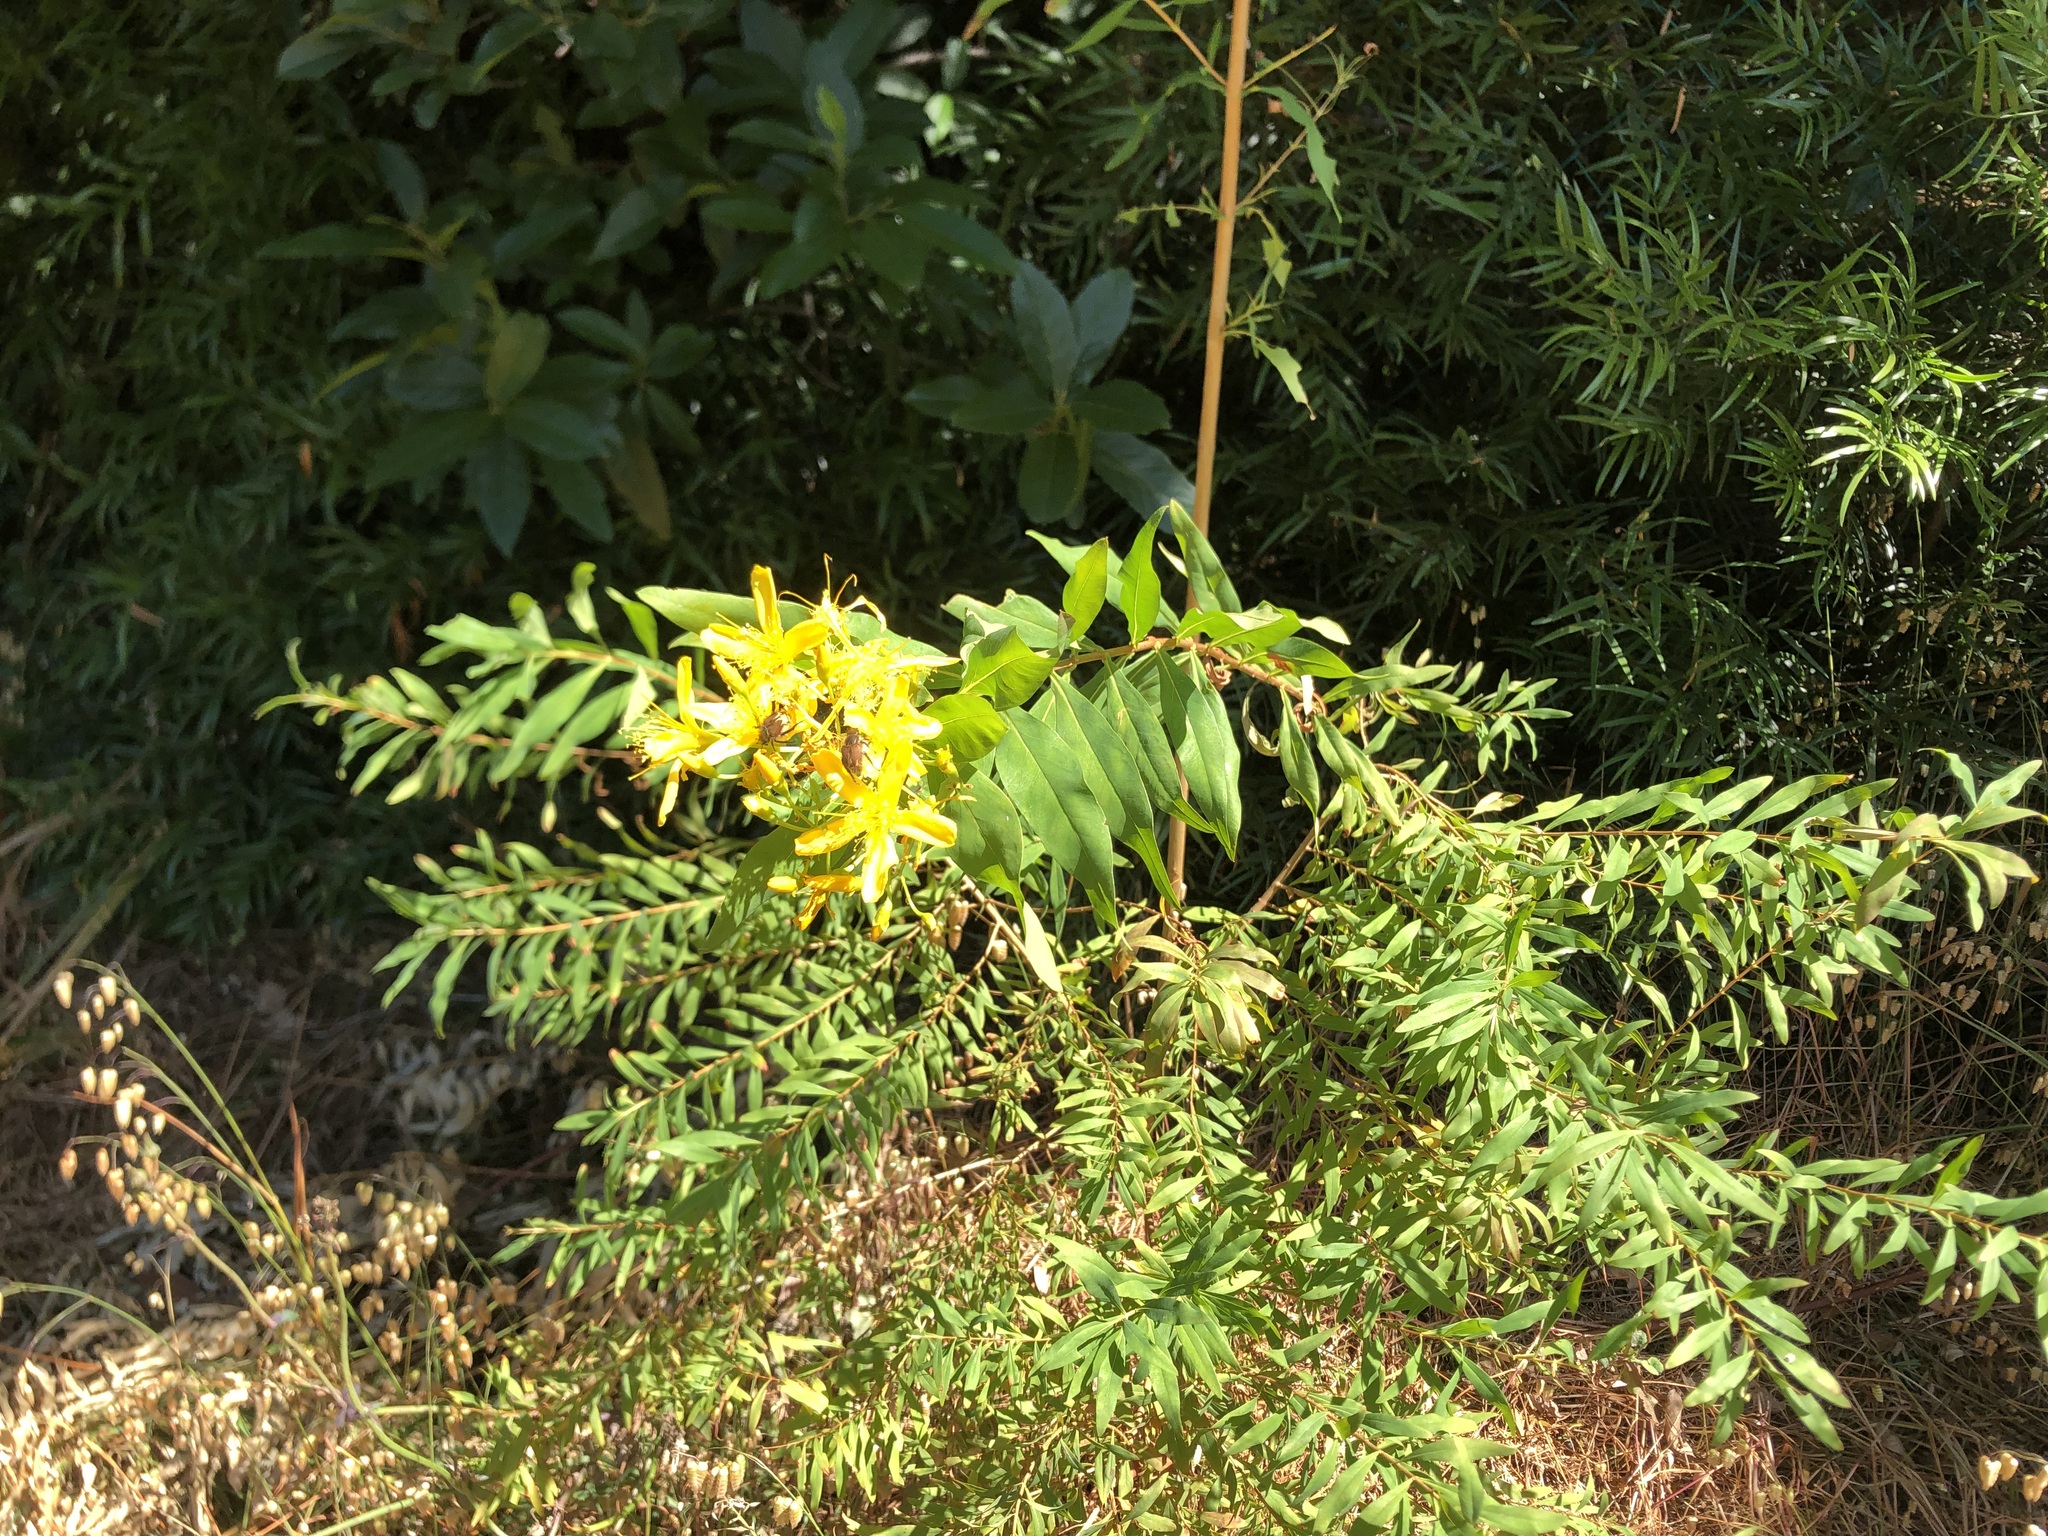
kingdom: Plantae
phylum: Tracheophyta
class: Magnoliopsida
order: Malpighiales
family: Hypericaceae
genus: Hypericum
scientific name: Hypericum canariense
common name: Canary island st. johnswort
